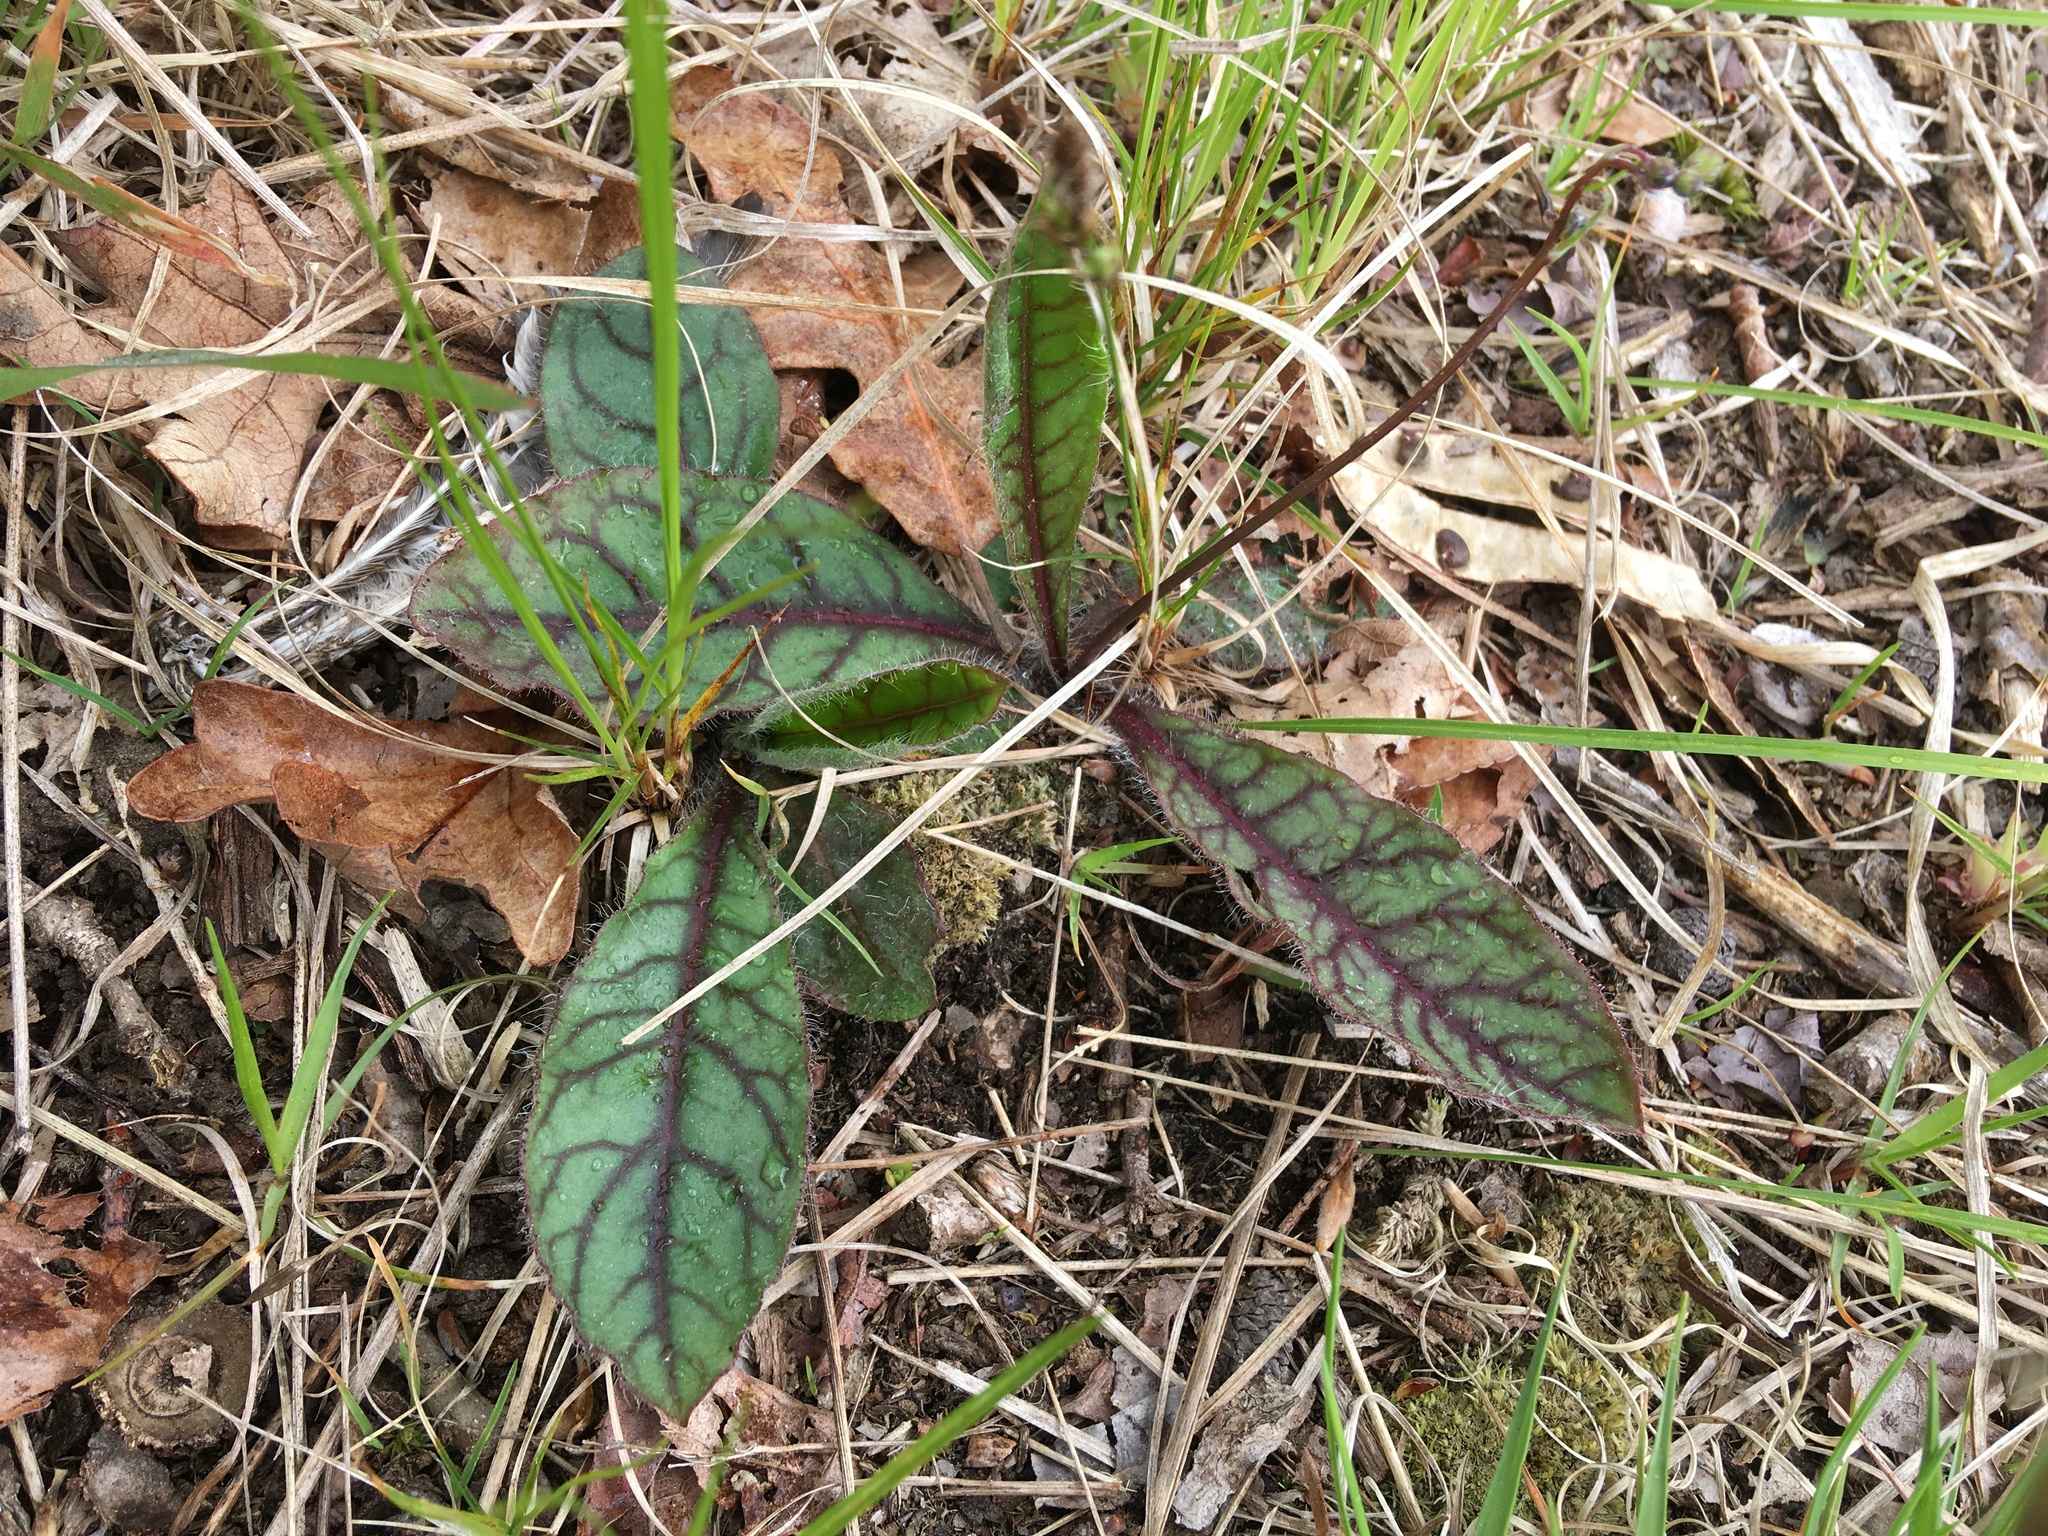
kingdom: Plantae
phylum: Tracheophyta
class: Magnoliopsida
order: Asterales
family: Asteraceae
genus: Hieracium
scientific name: Hieracium venosum
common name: Rattlesnake hawkweed
